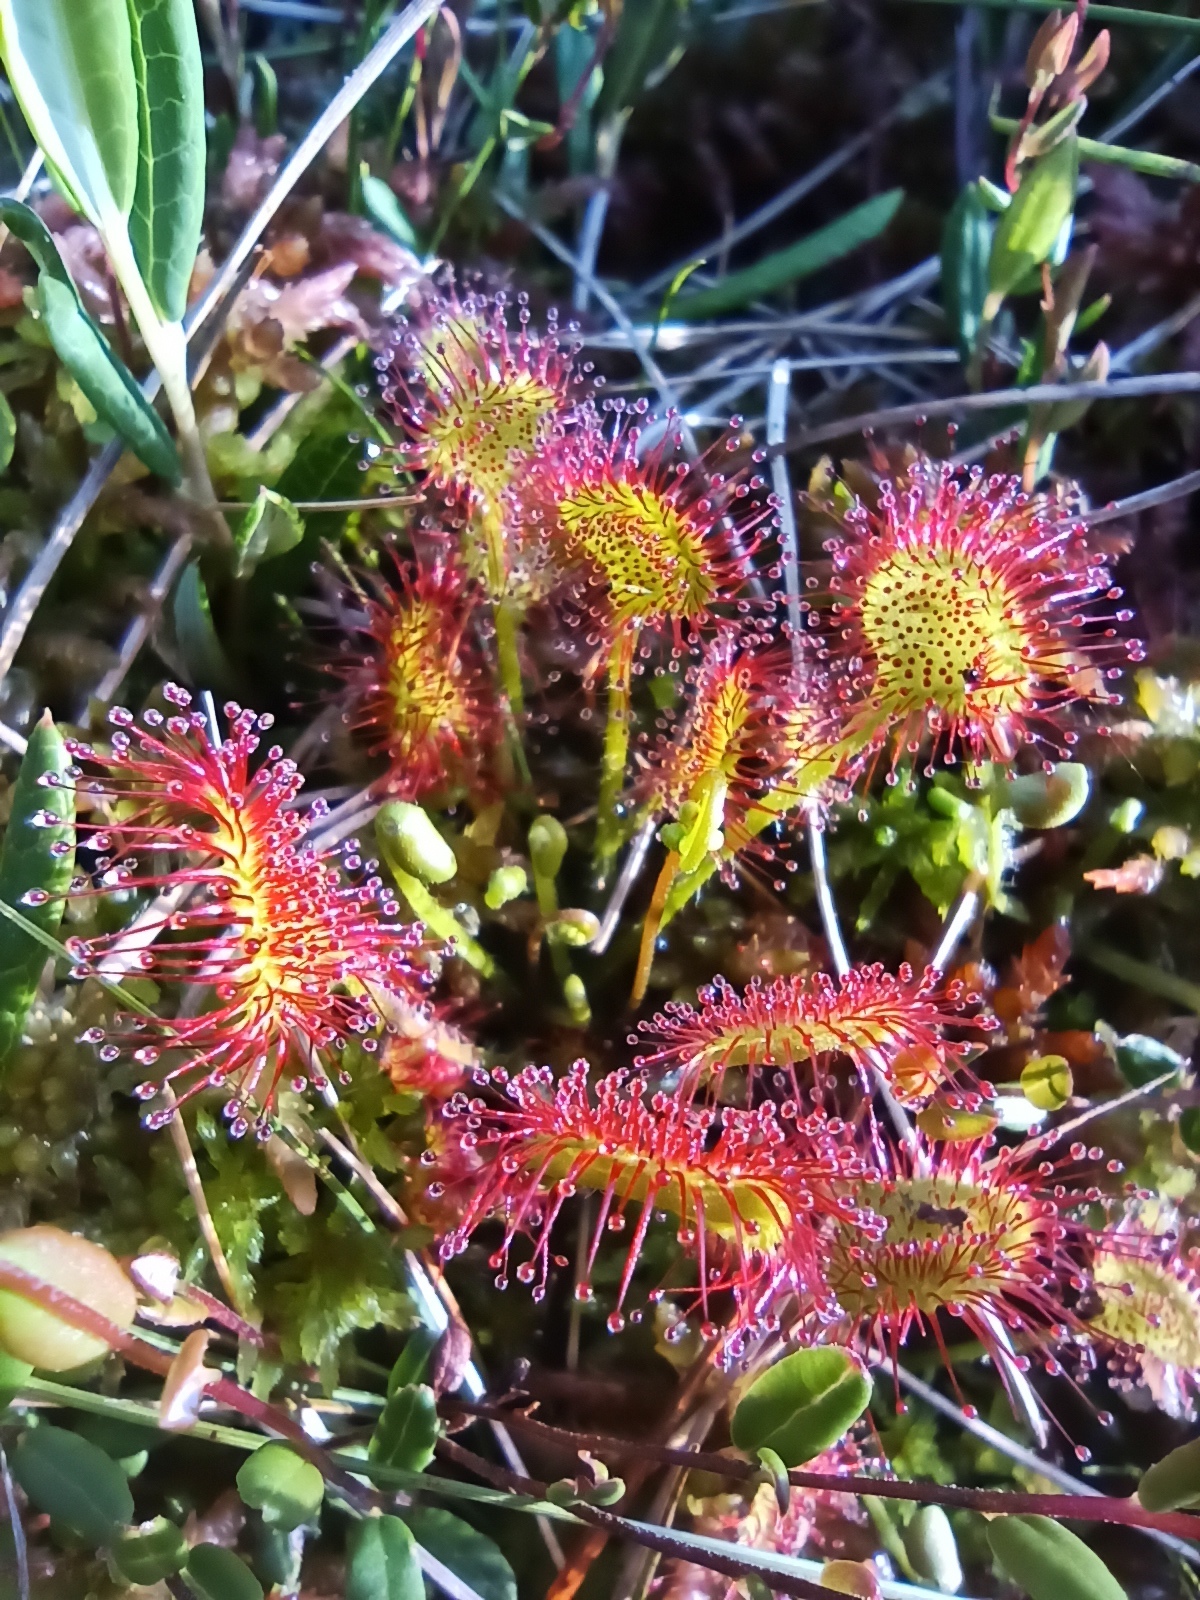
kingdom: Plantae
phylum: Tracheophyta
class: Magnoliopsida
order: Caryophyllales
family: Droseraceae
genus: Drosera
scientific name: Drosera rotundifolia
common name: Round-leaved sundew
